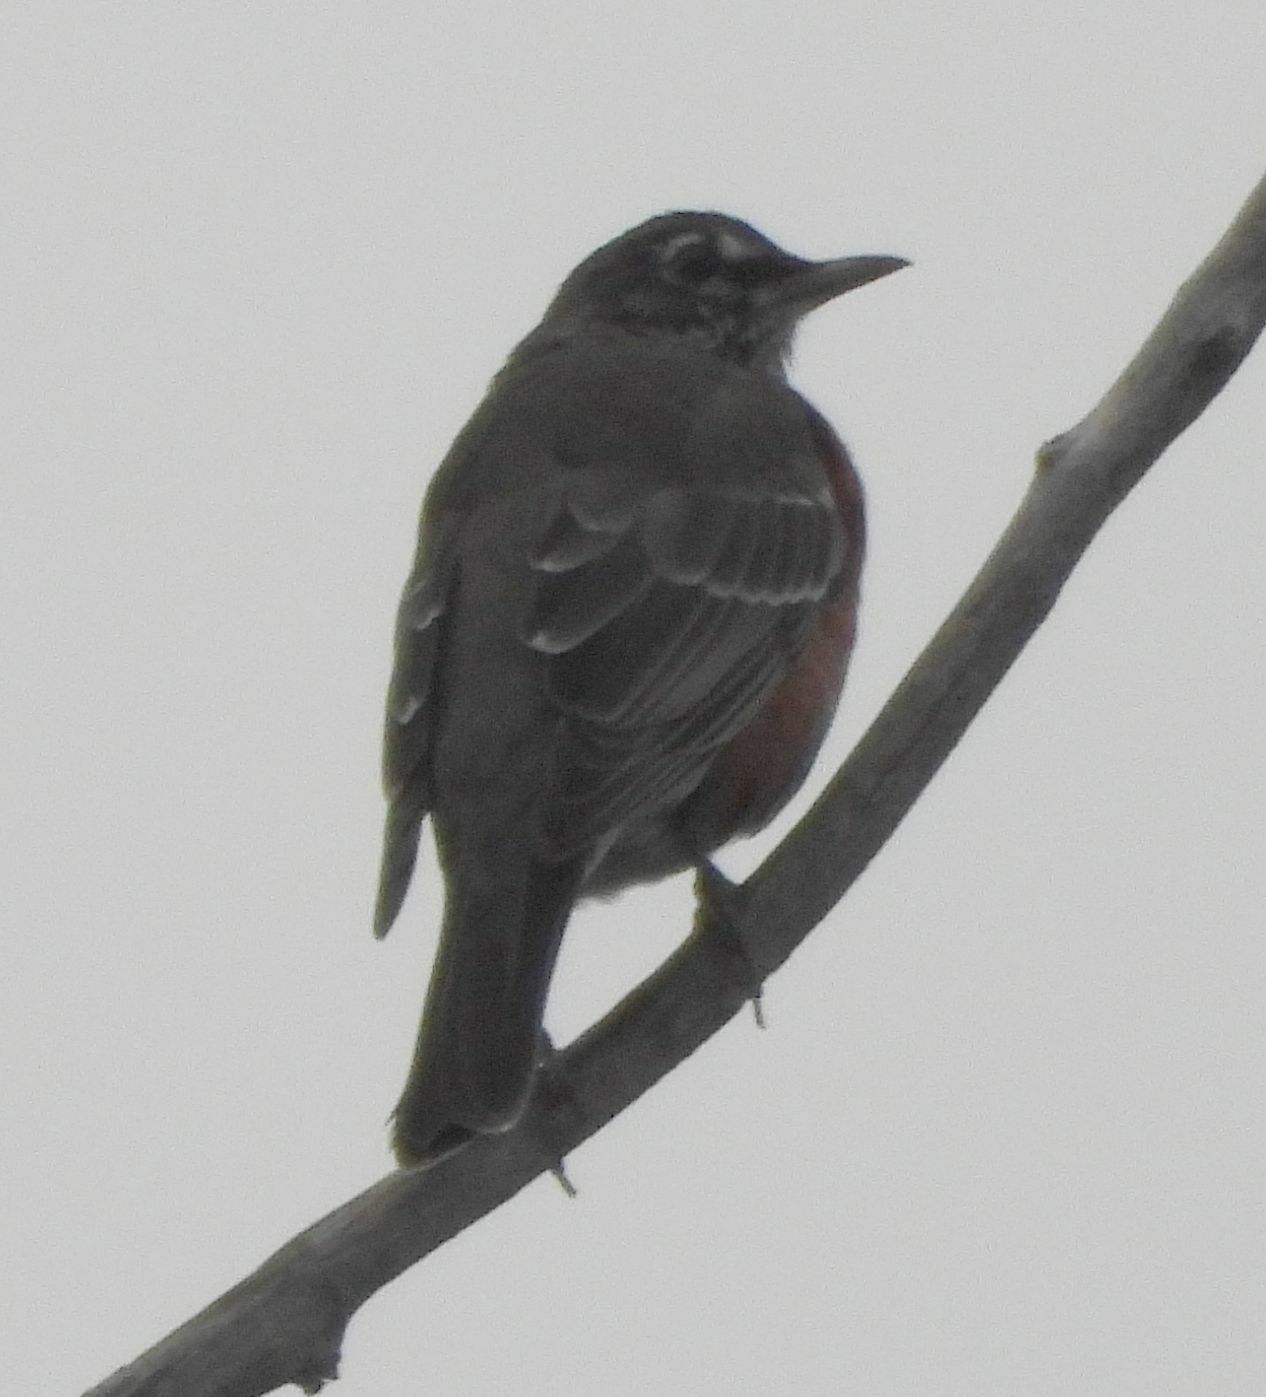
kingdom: Animalia
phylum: Chordata
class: Aves
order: Passeriformes
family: Turdidae
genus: Turdus
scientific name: Turdus migratorius
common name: American robin
